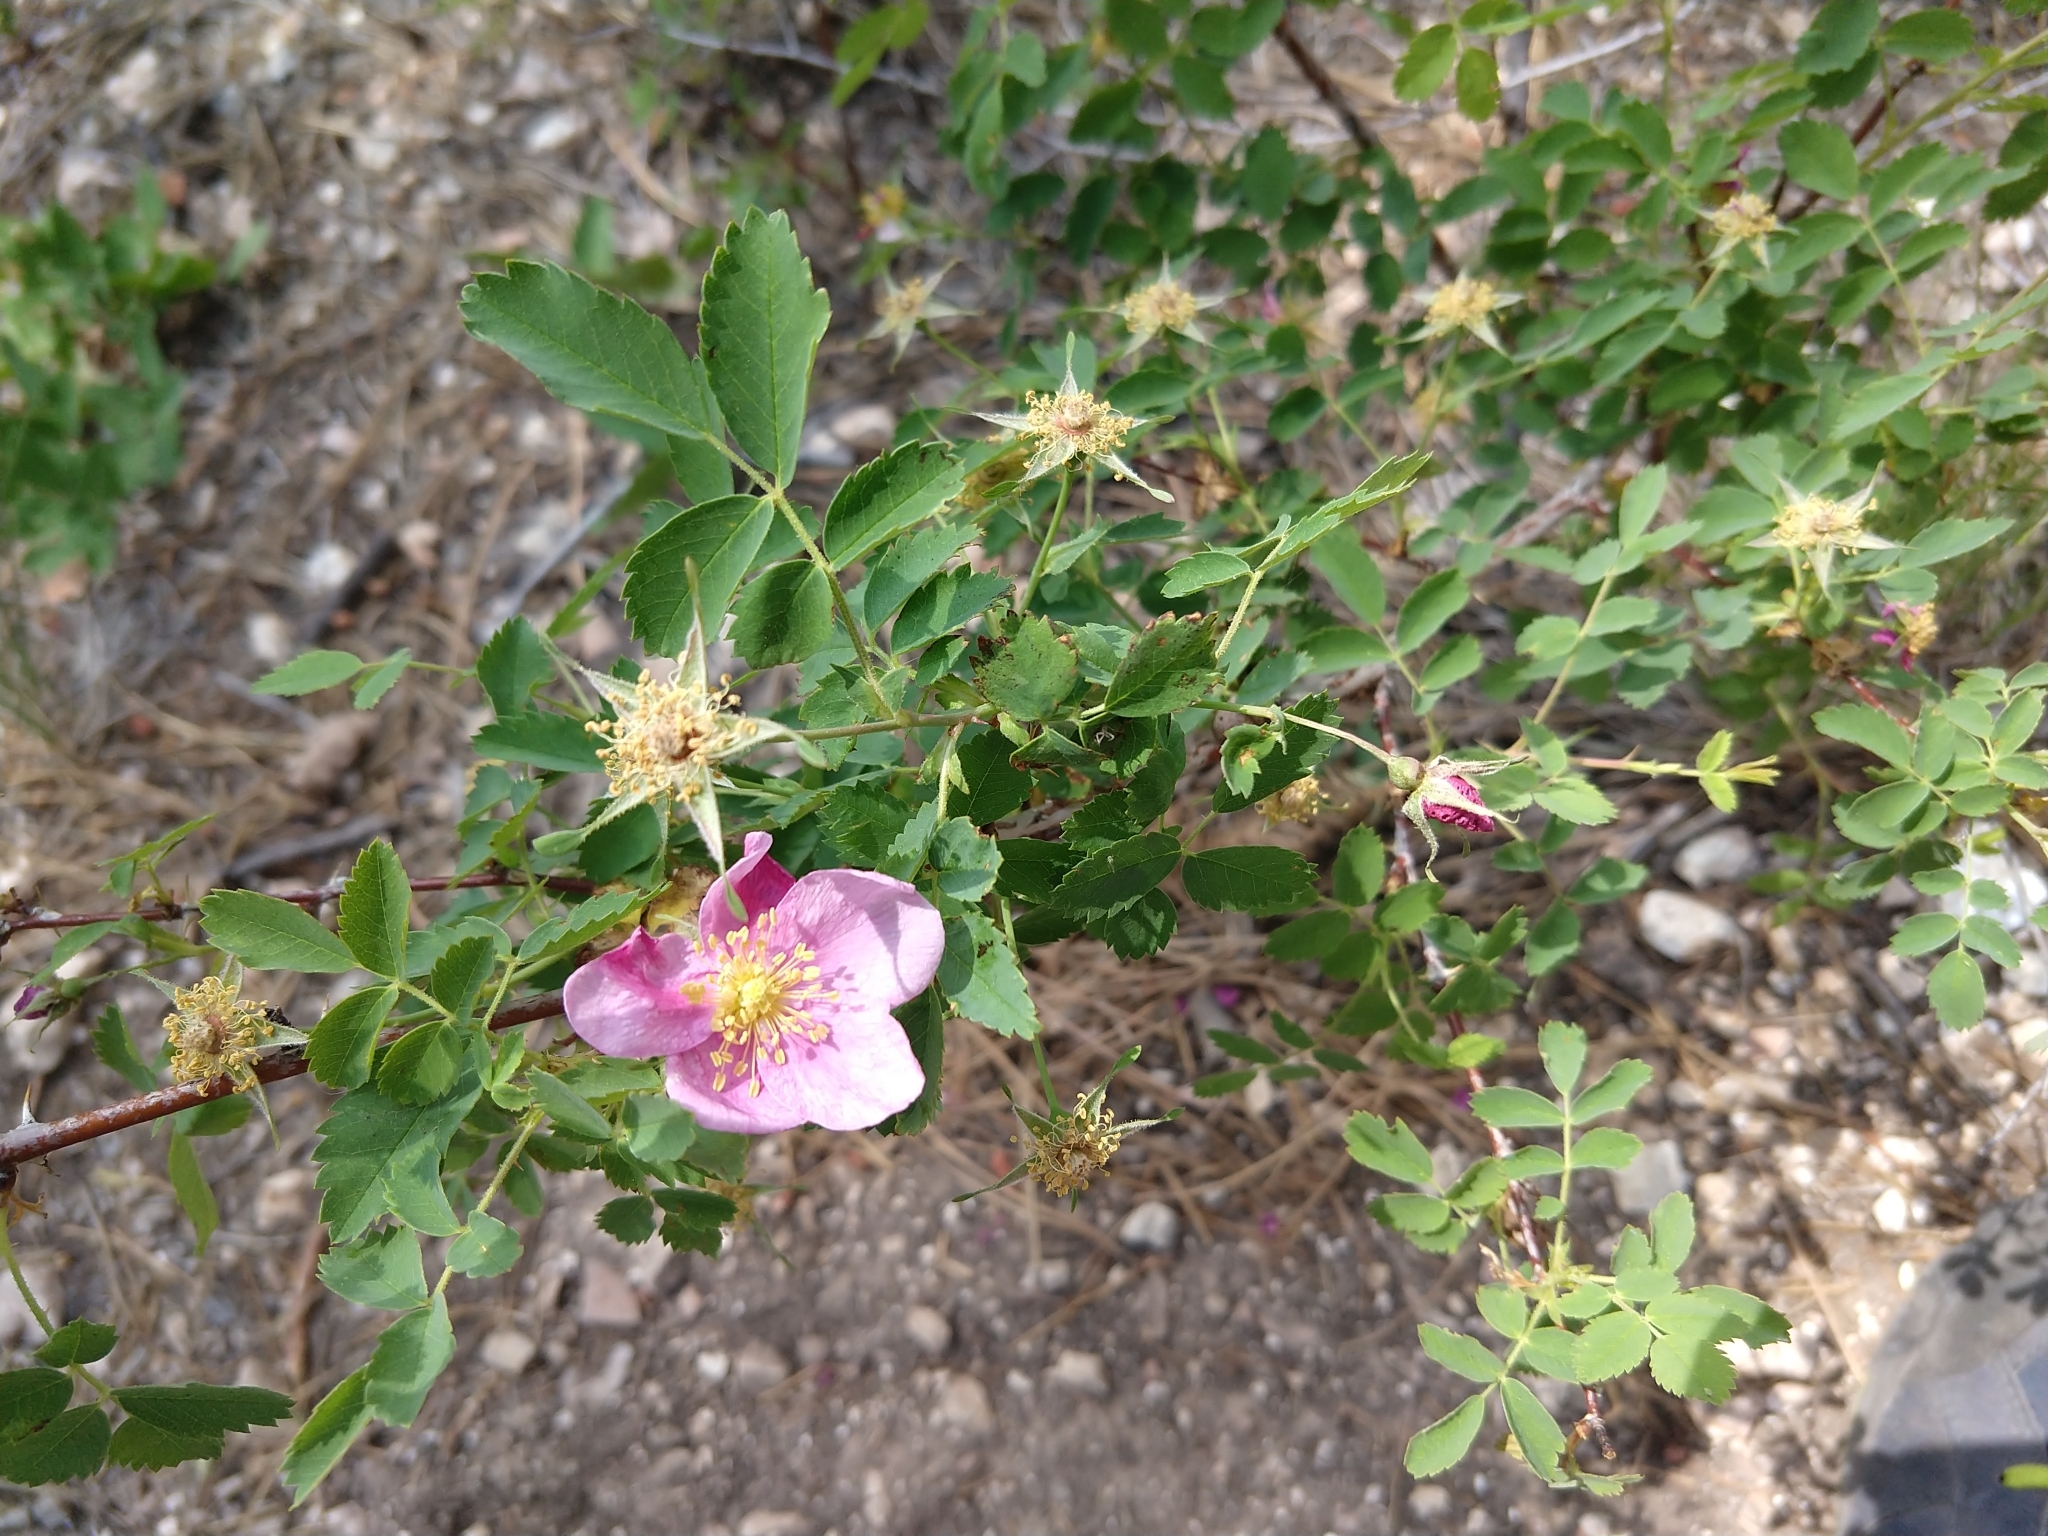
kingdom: Plantae
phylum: Tracheophyta
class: Magnoliopsida
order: Rosales
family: Rosaceae
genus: Rosa
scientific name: Rosa woodsii
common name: Woods's rose
